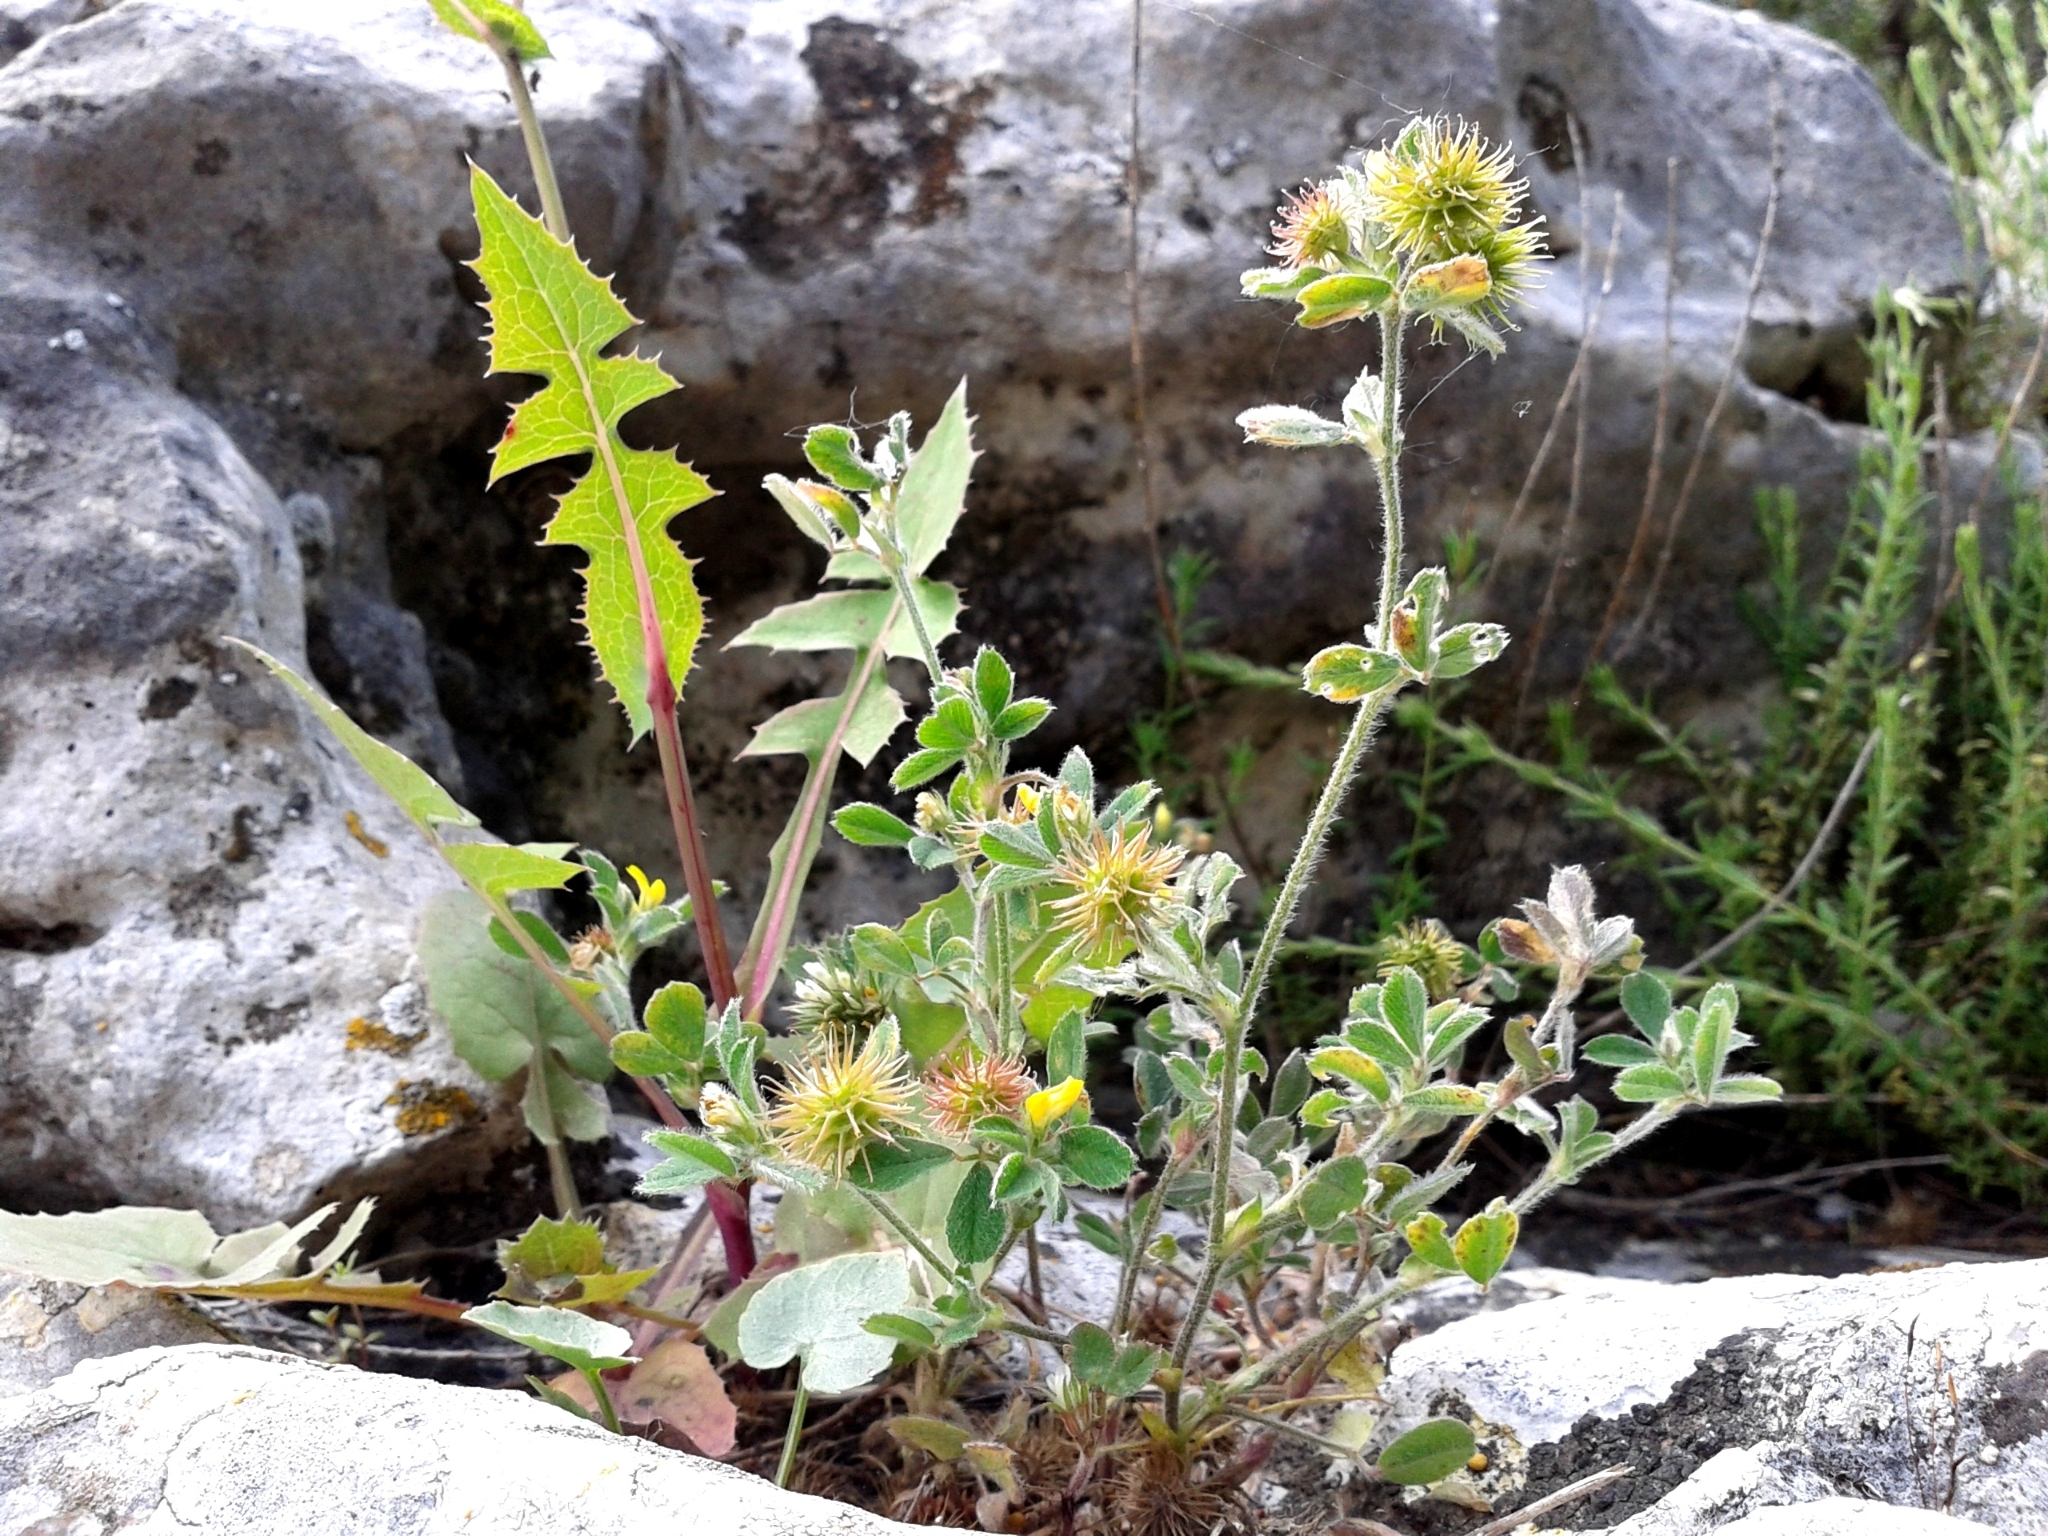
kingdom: Plantae
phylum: Tracheophyta
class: Magnoliopsida
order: Fabales
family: Fabaceae
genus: Medicago
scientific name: Medicago minima
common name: Little bur-clover
